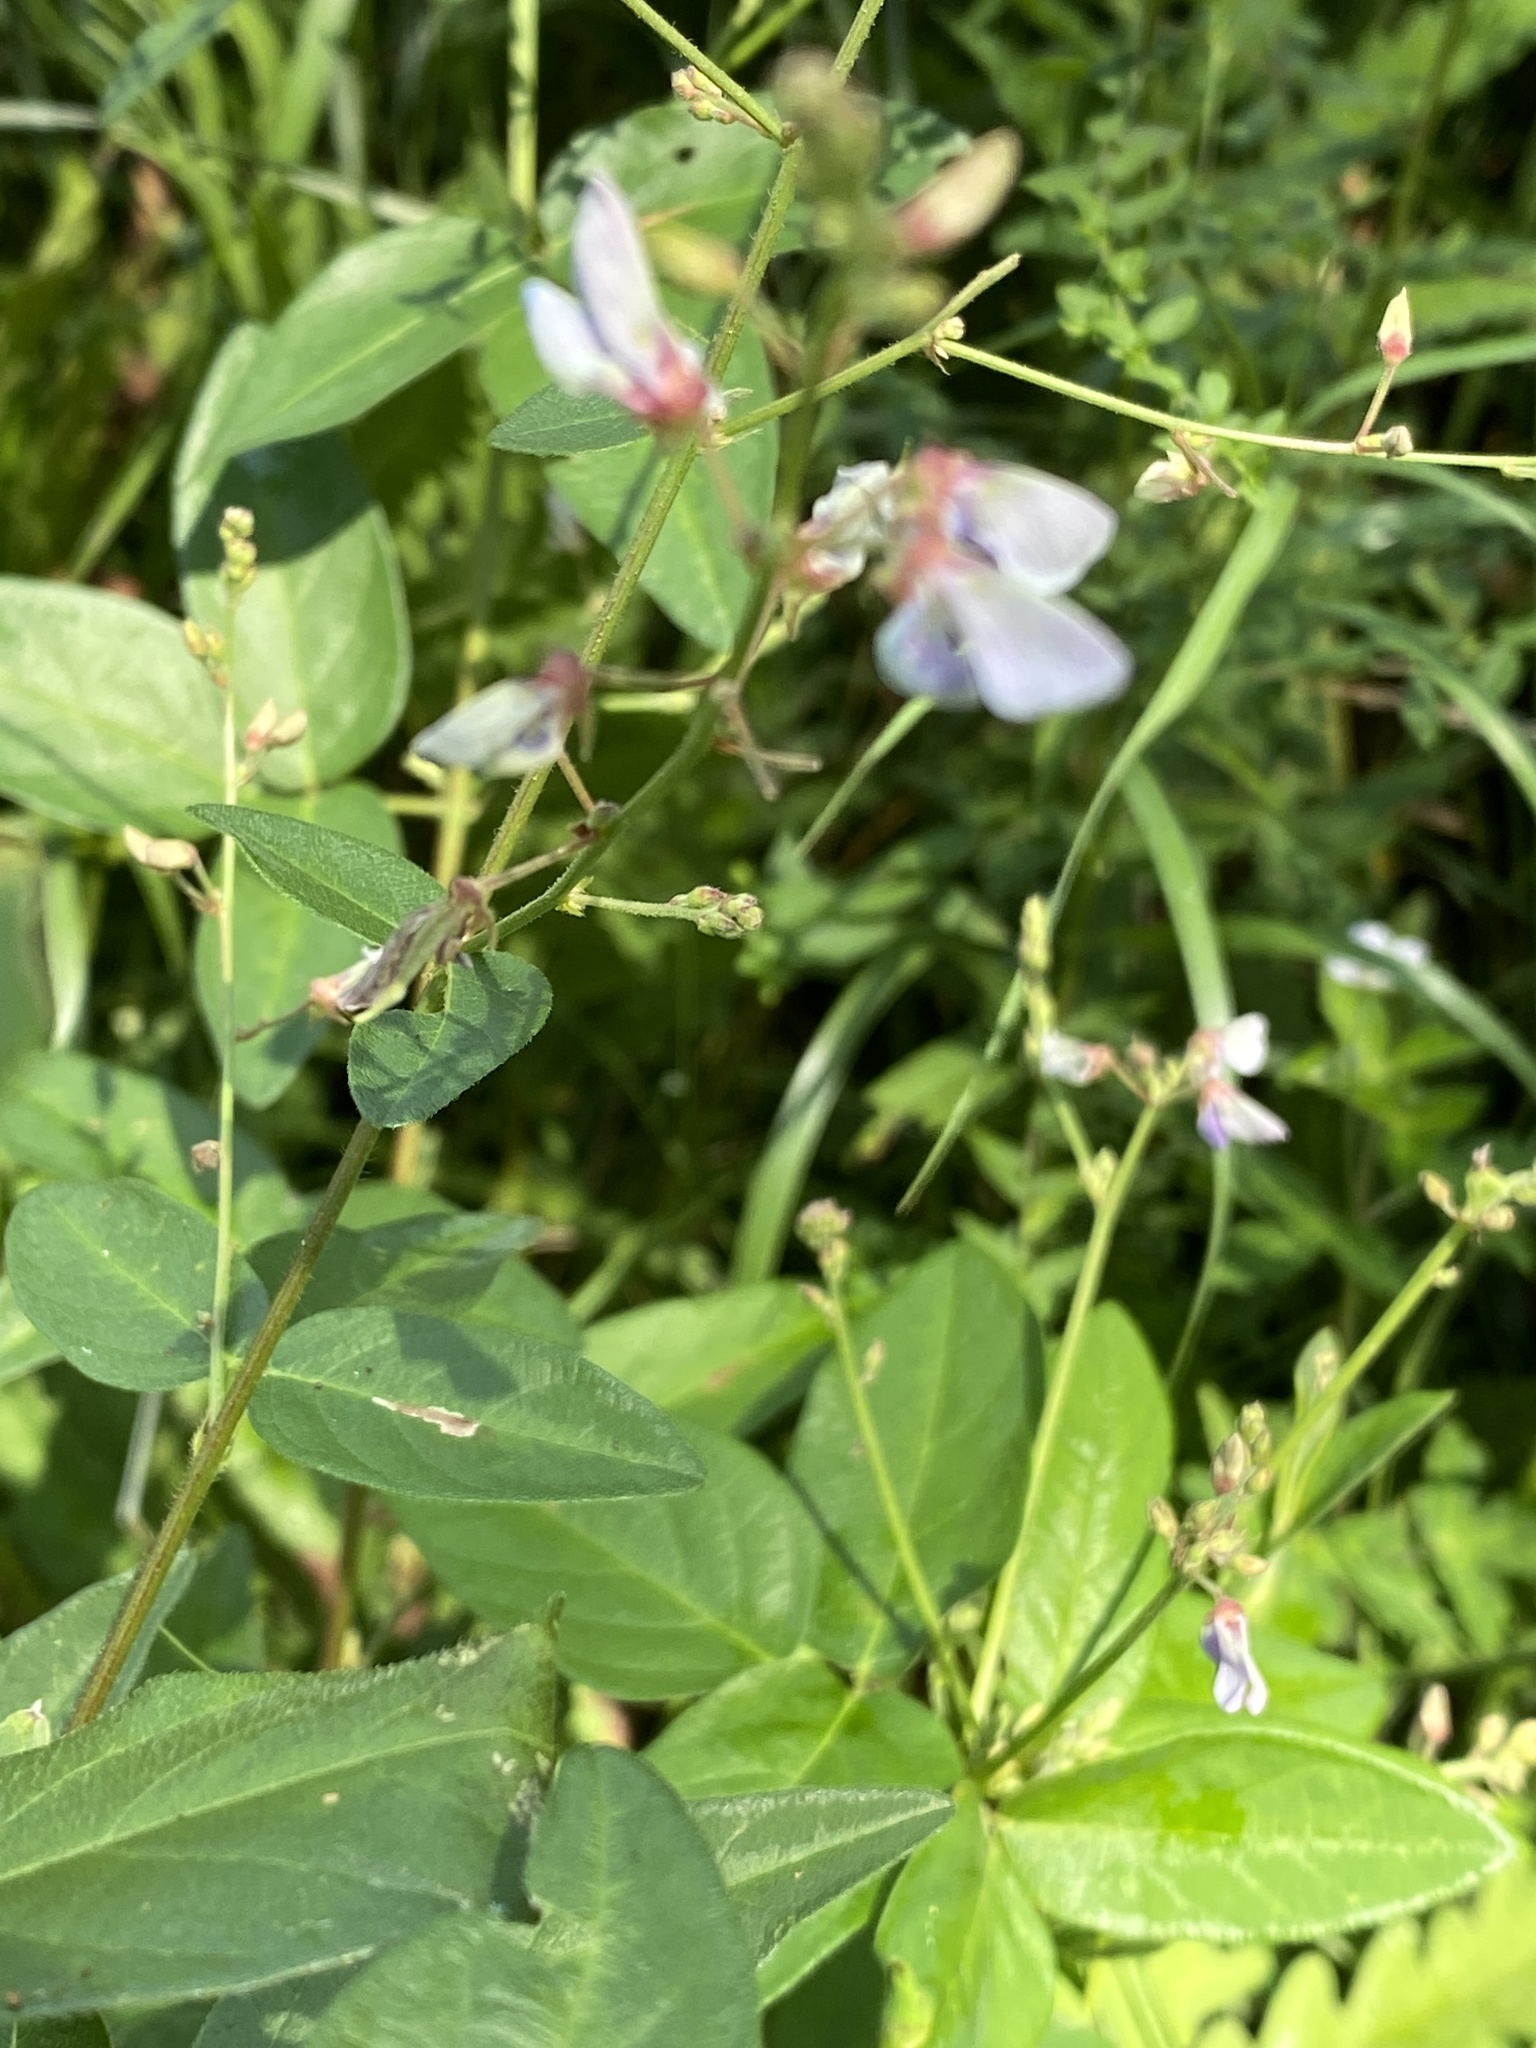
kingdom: Plantae
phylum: Tracheophyta
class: Magnoliopsida
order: Fabales
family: Fabaceae
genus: Desmodium
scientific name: Desmodium glabellum
